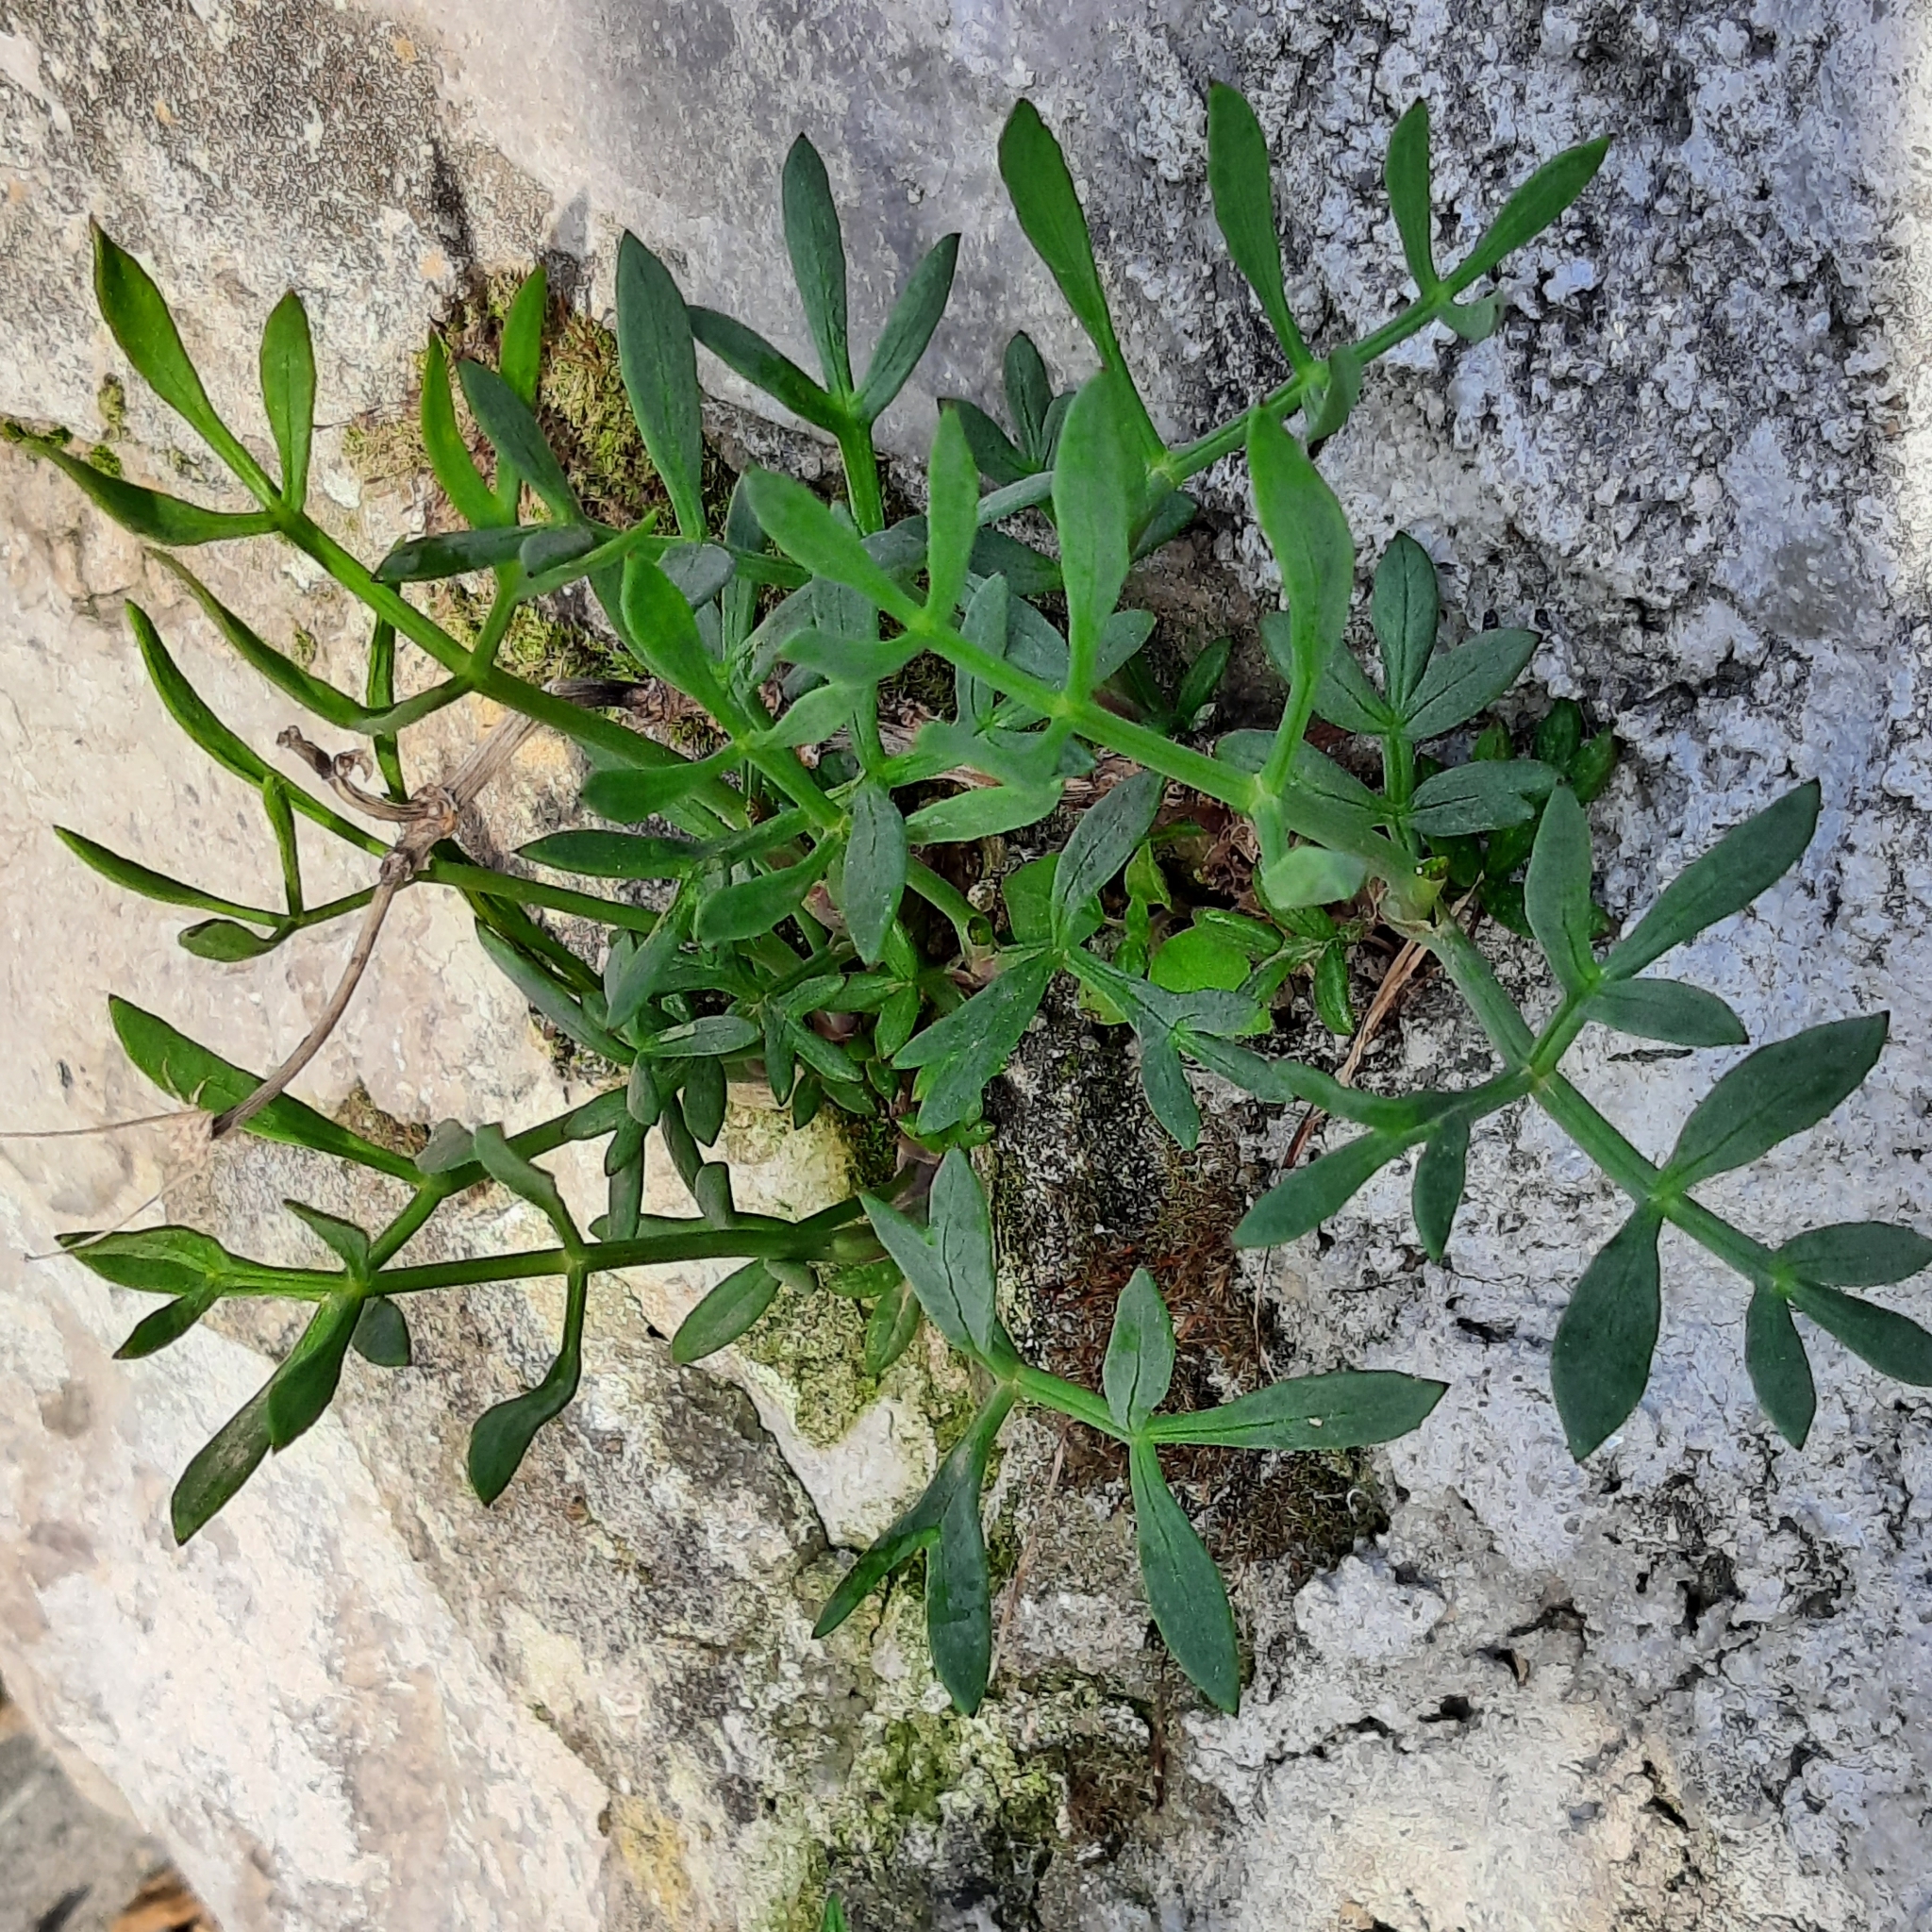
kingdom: Plantae
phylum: Tracheophyta
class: Magnoliopsida
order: Apiales
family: Apiaceae
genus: Crithmum
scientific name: Crithmum maritimum
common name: Rock samphire
